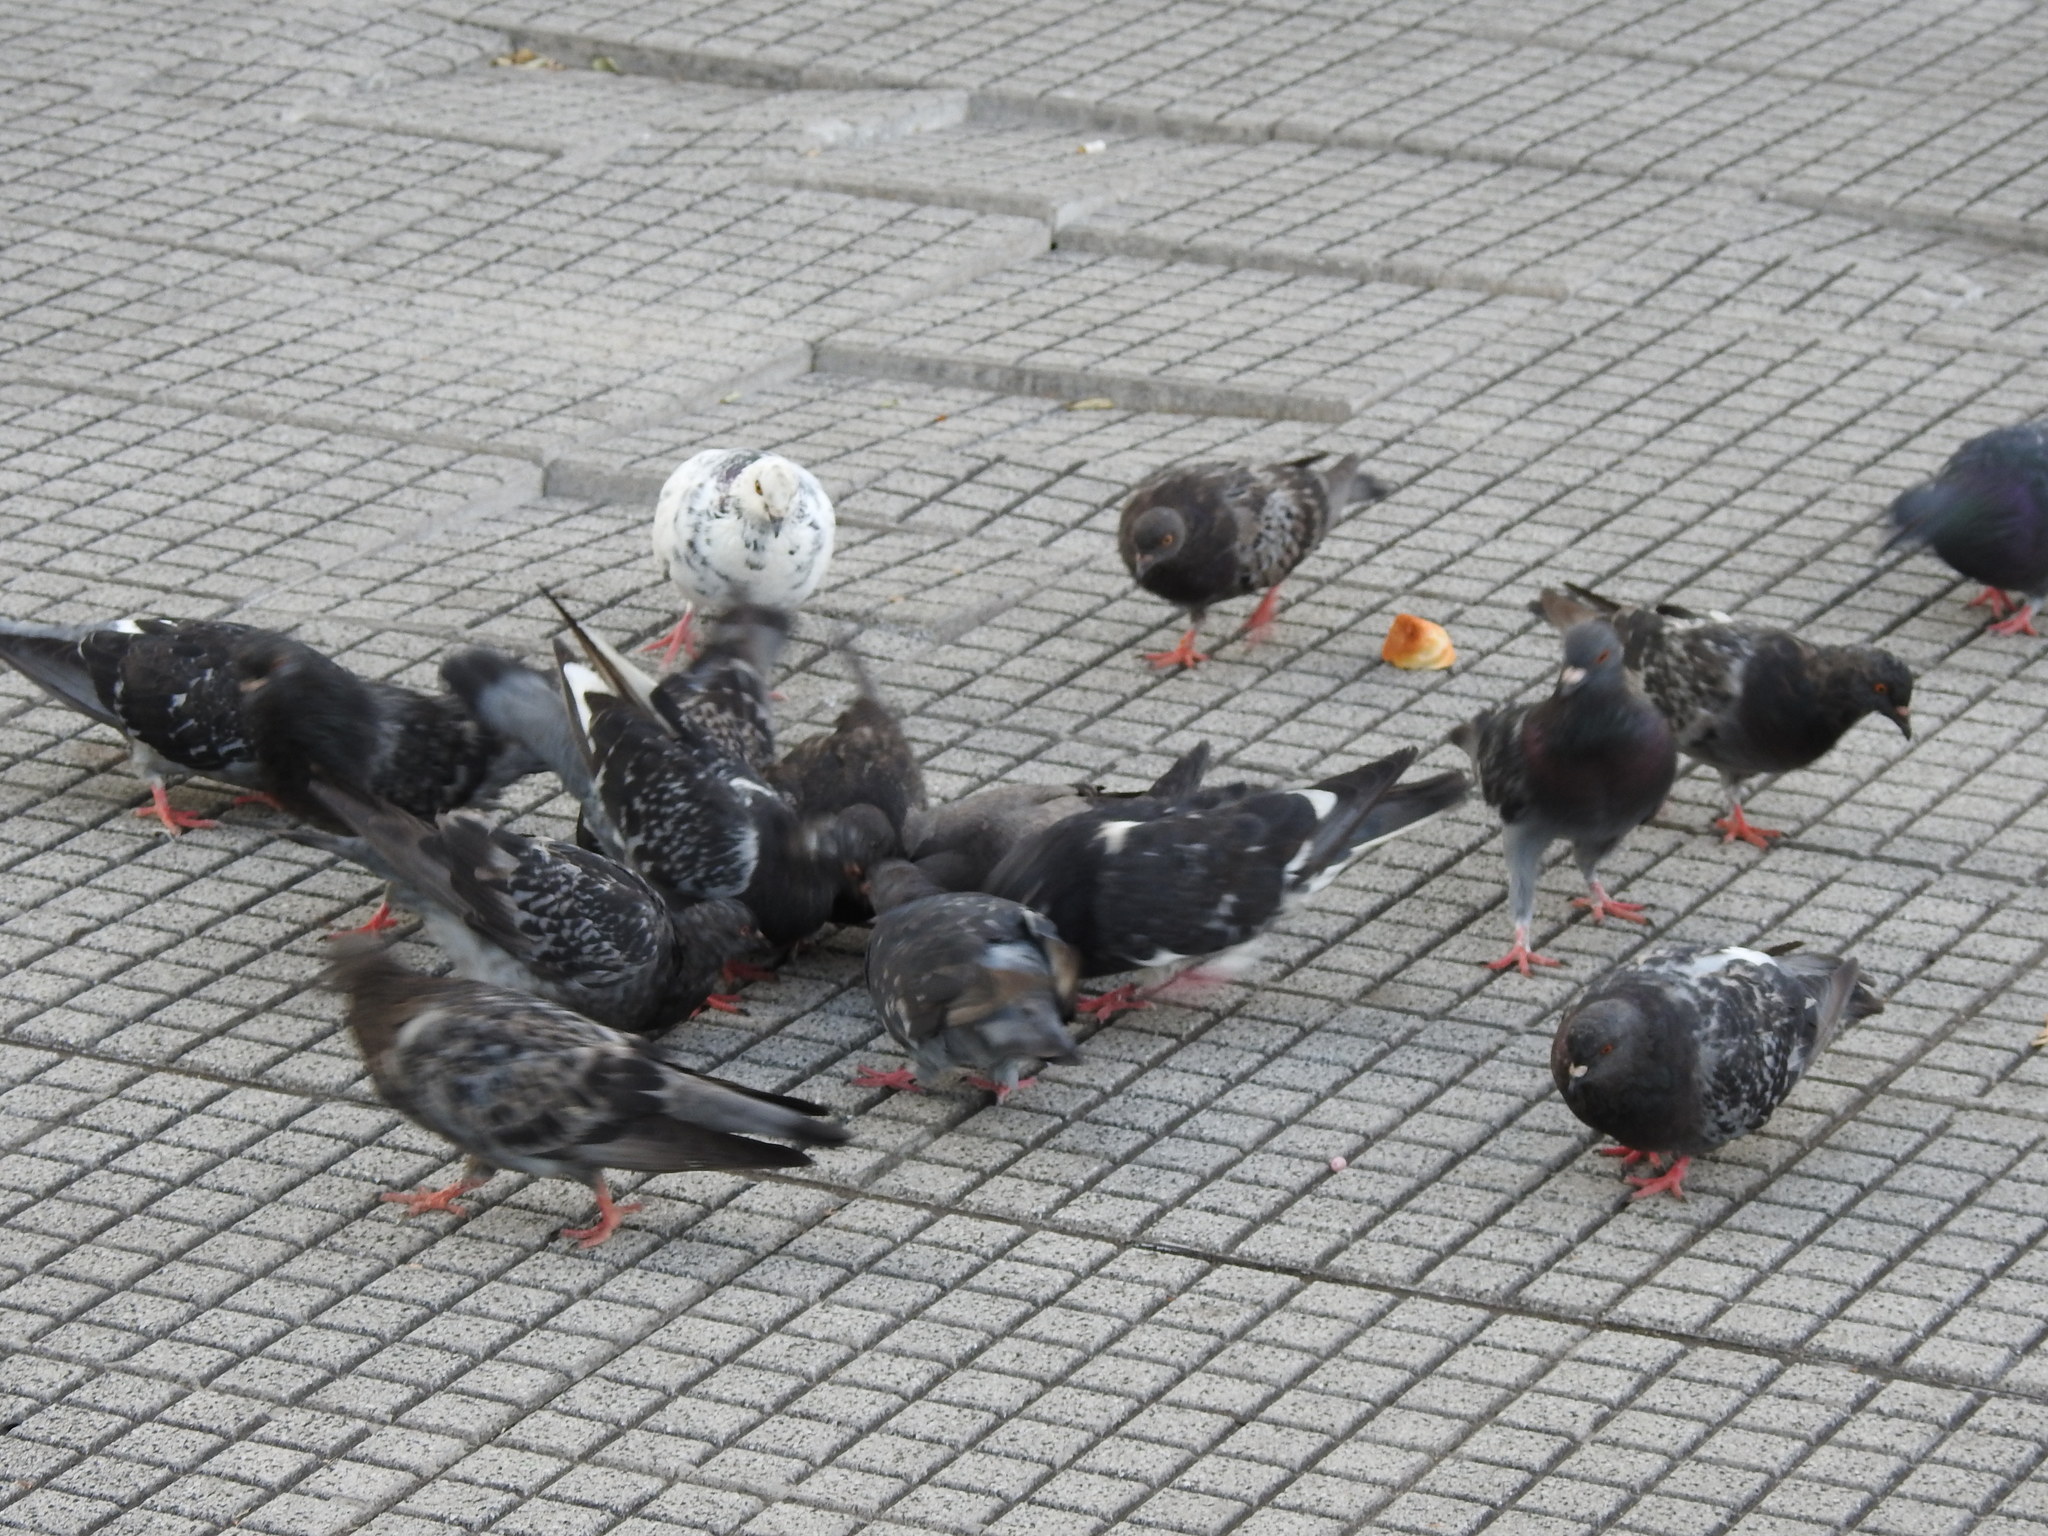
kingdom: Animalia
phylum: Chordata
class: Aves
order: Columbiformes
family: Columbidae
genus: Columba
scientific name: Columba livia
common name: Rock pigeon
